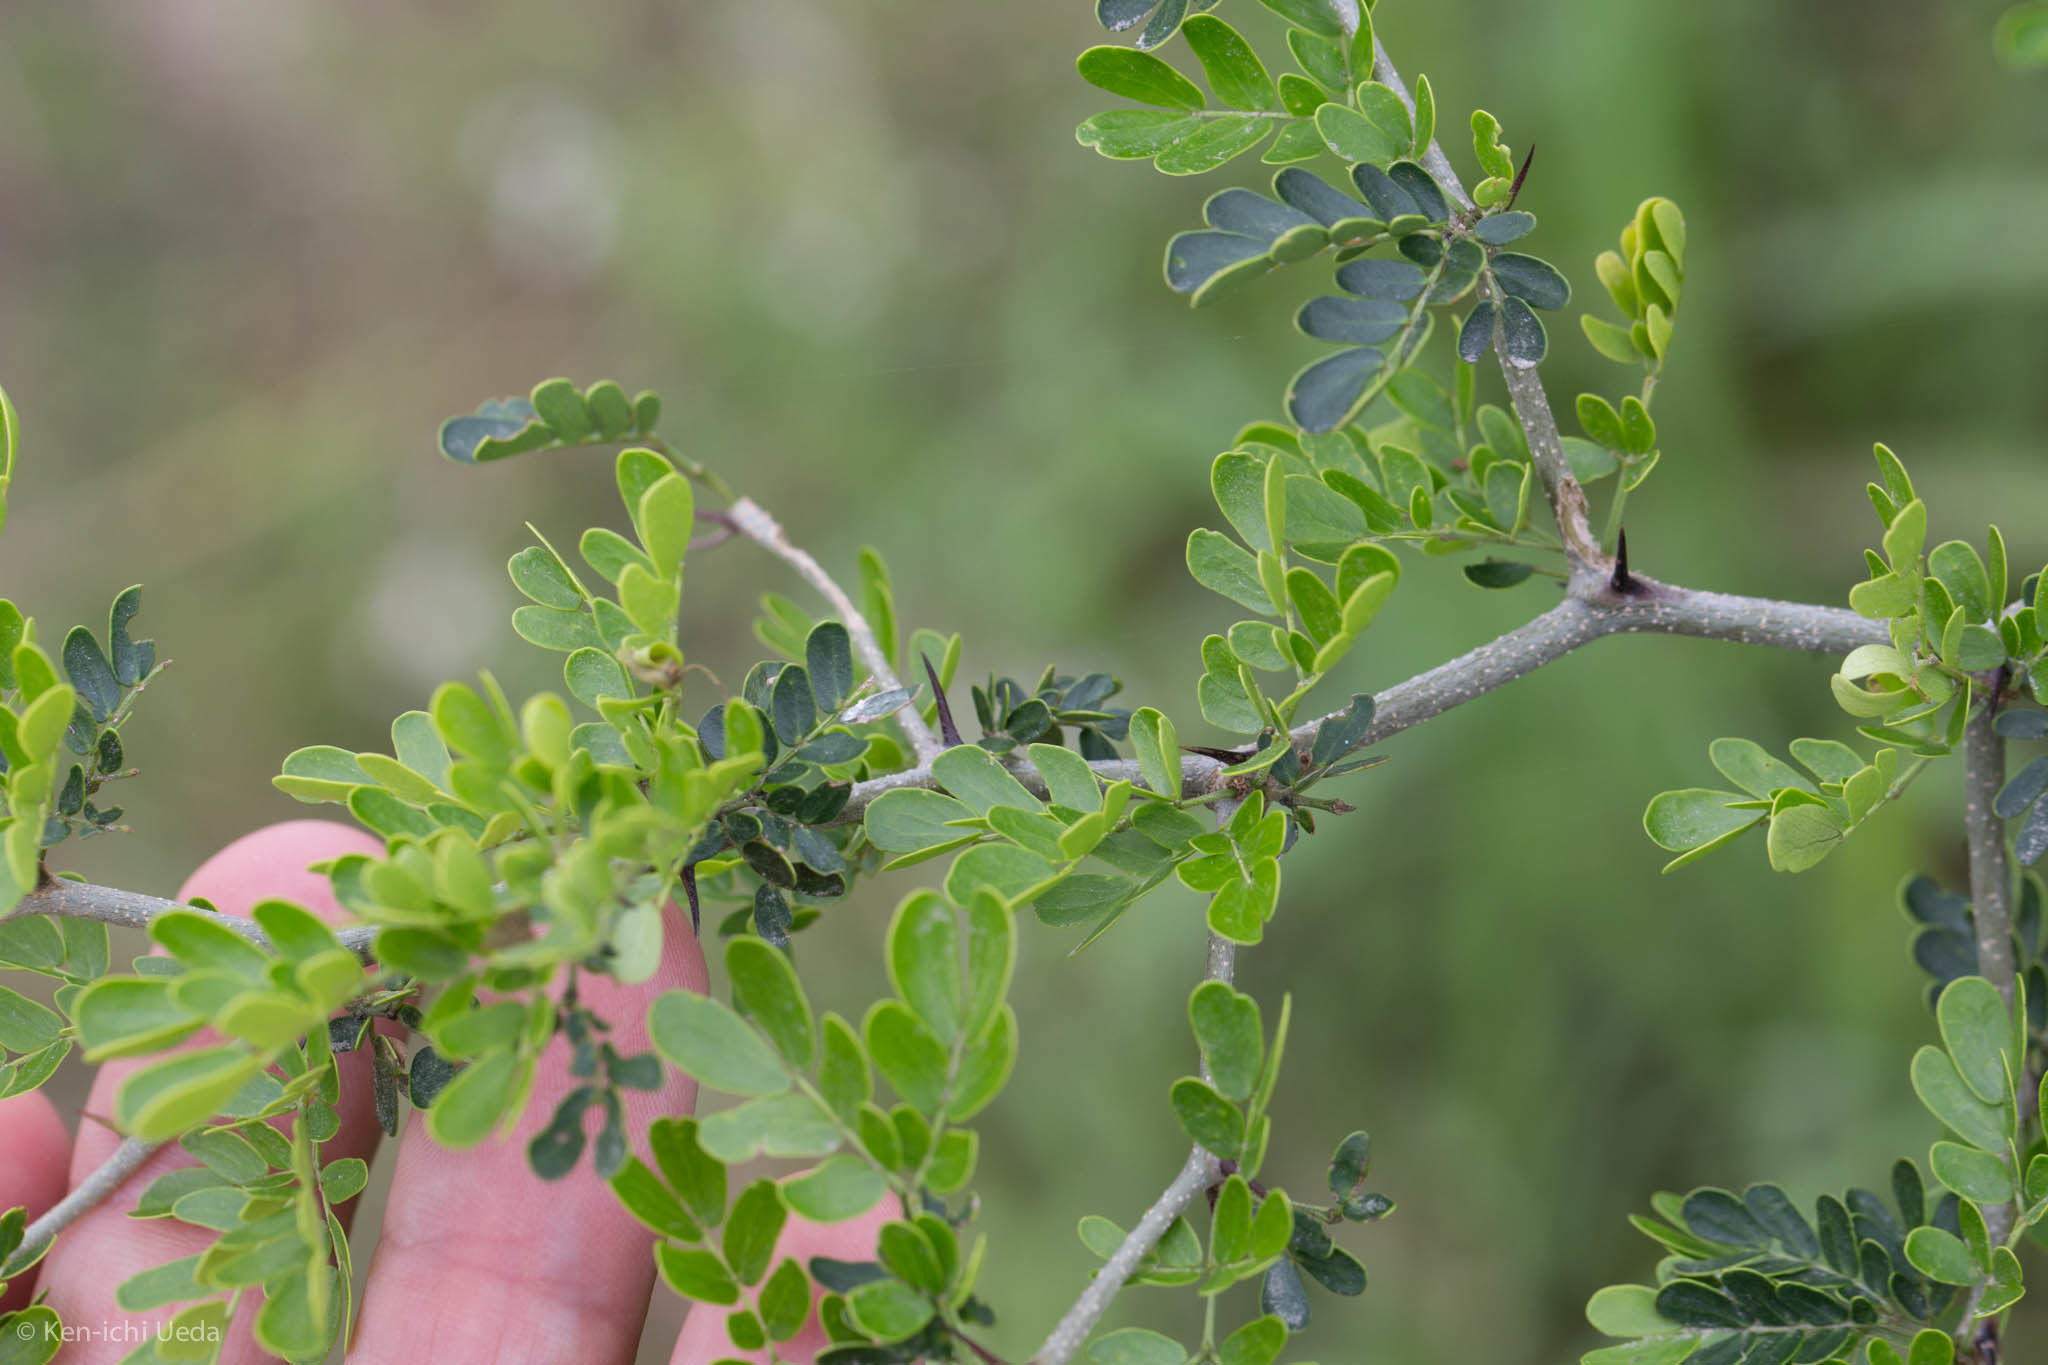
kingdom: Plantae
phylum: Tracheophyta
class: Magnoliopsida
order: Fabales
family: Fabaceae
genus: Ebenopsis
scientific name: Ebenopsis ebano
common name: Ebony blackbead
